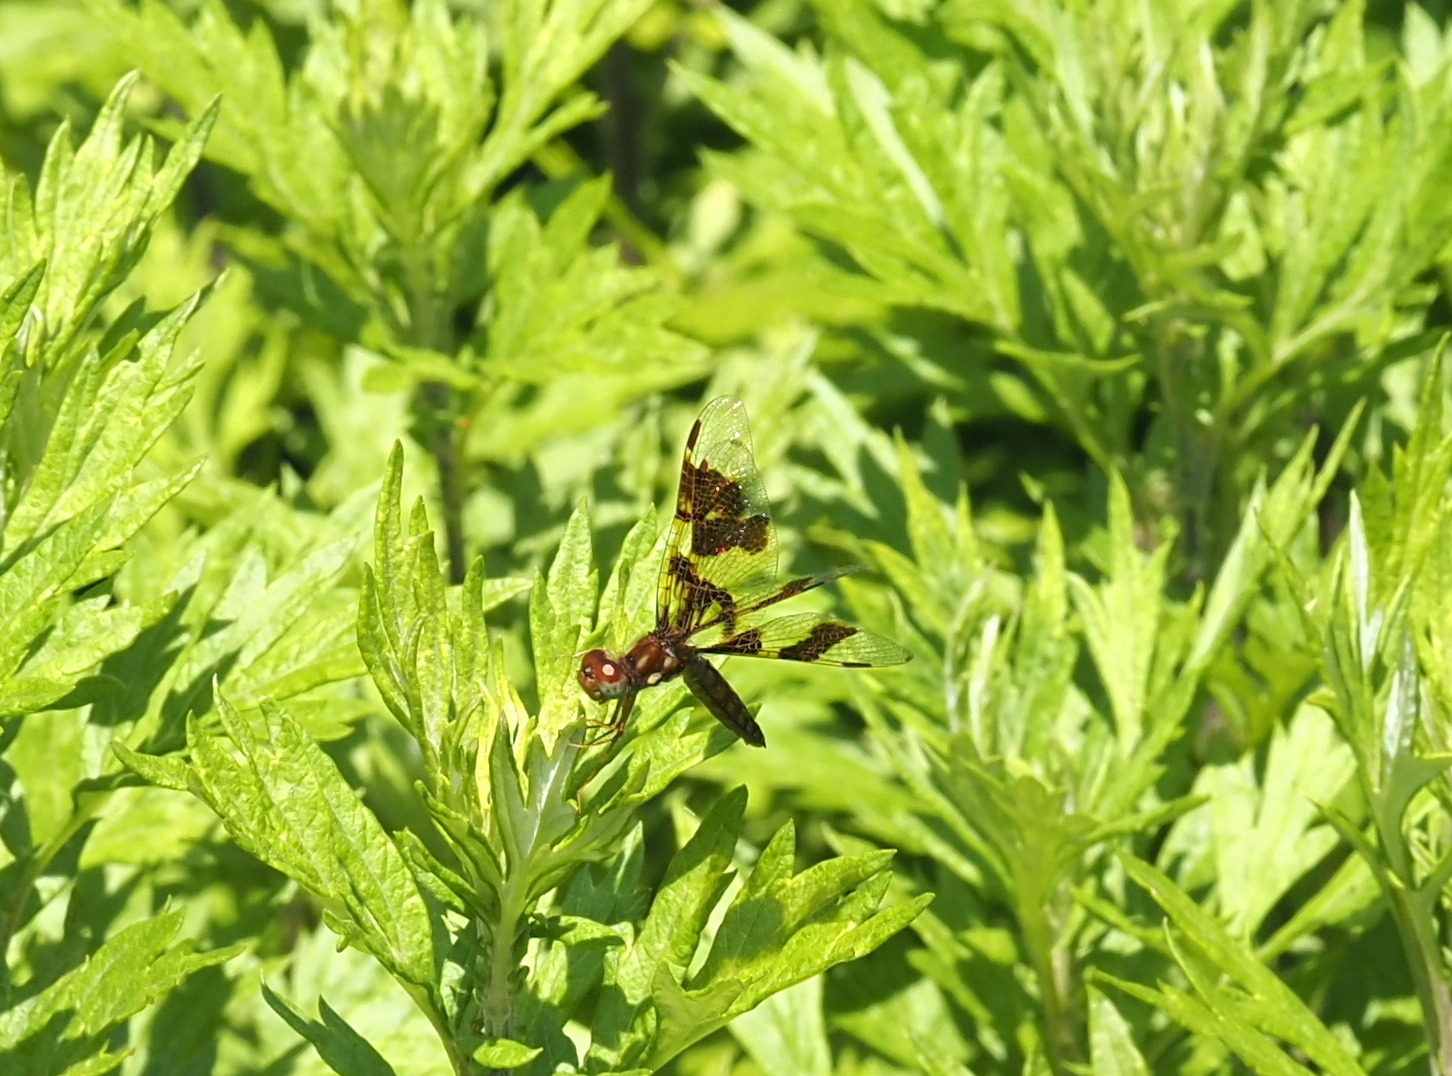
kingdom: Animalia
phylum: Arthropoda
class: Insecta
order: Odonata
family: Libellulidae
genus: Perithemis
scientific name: Perithemis tenera
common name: Eastern amberwing
